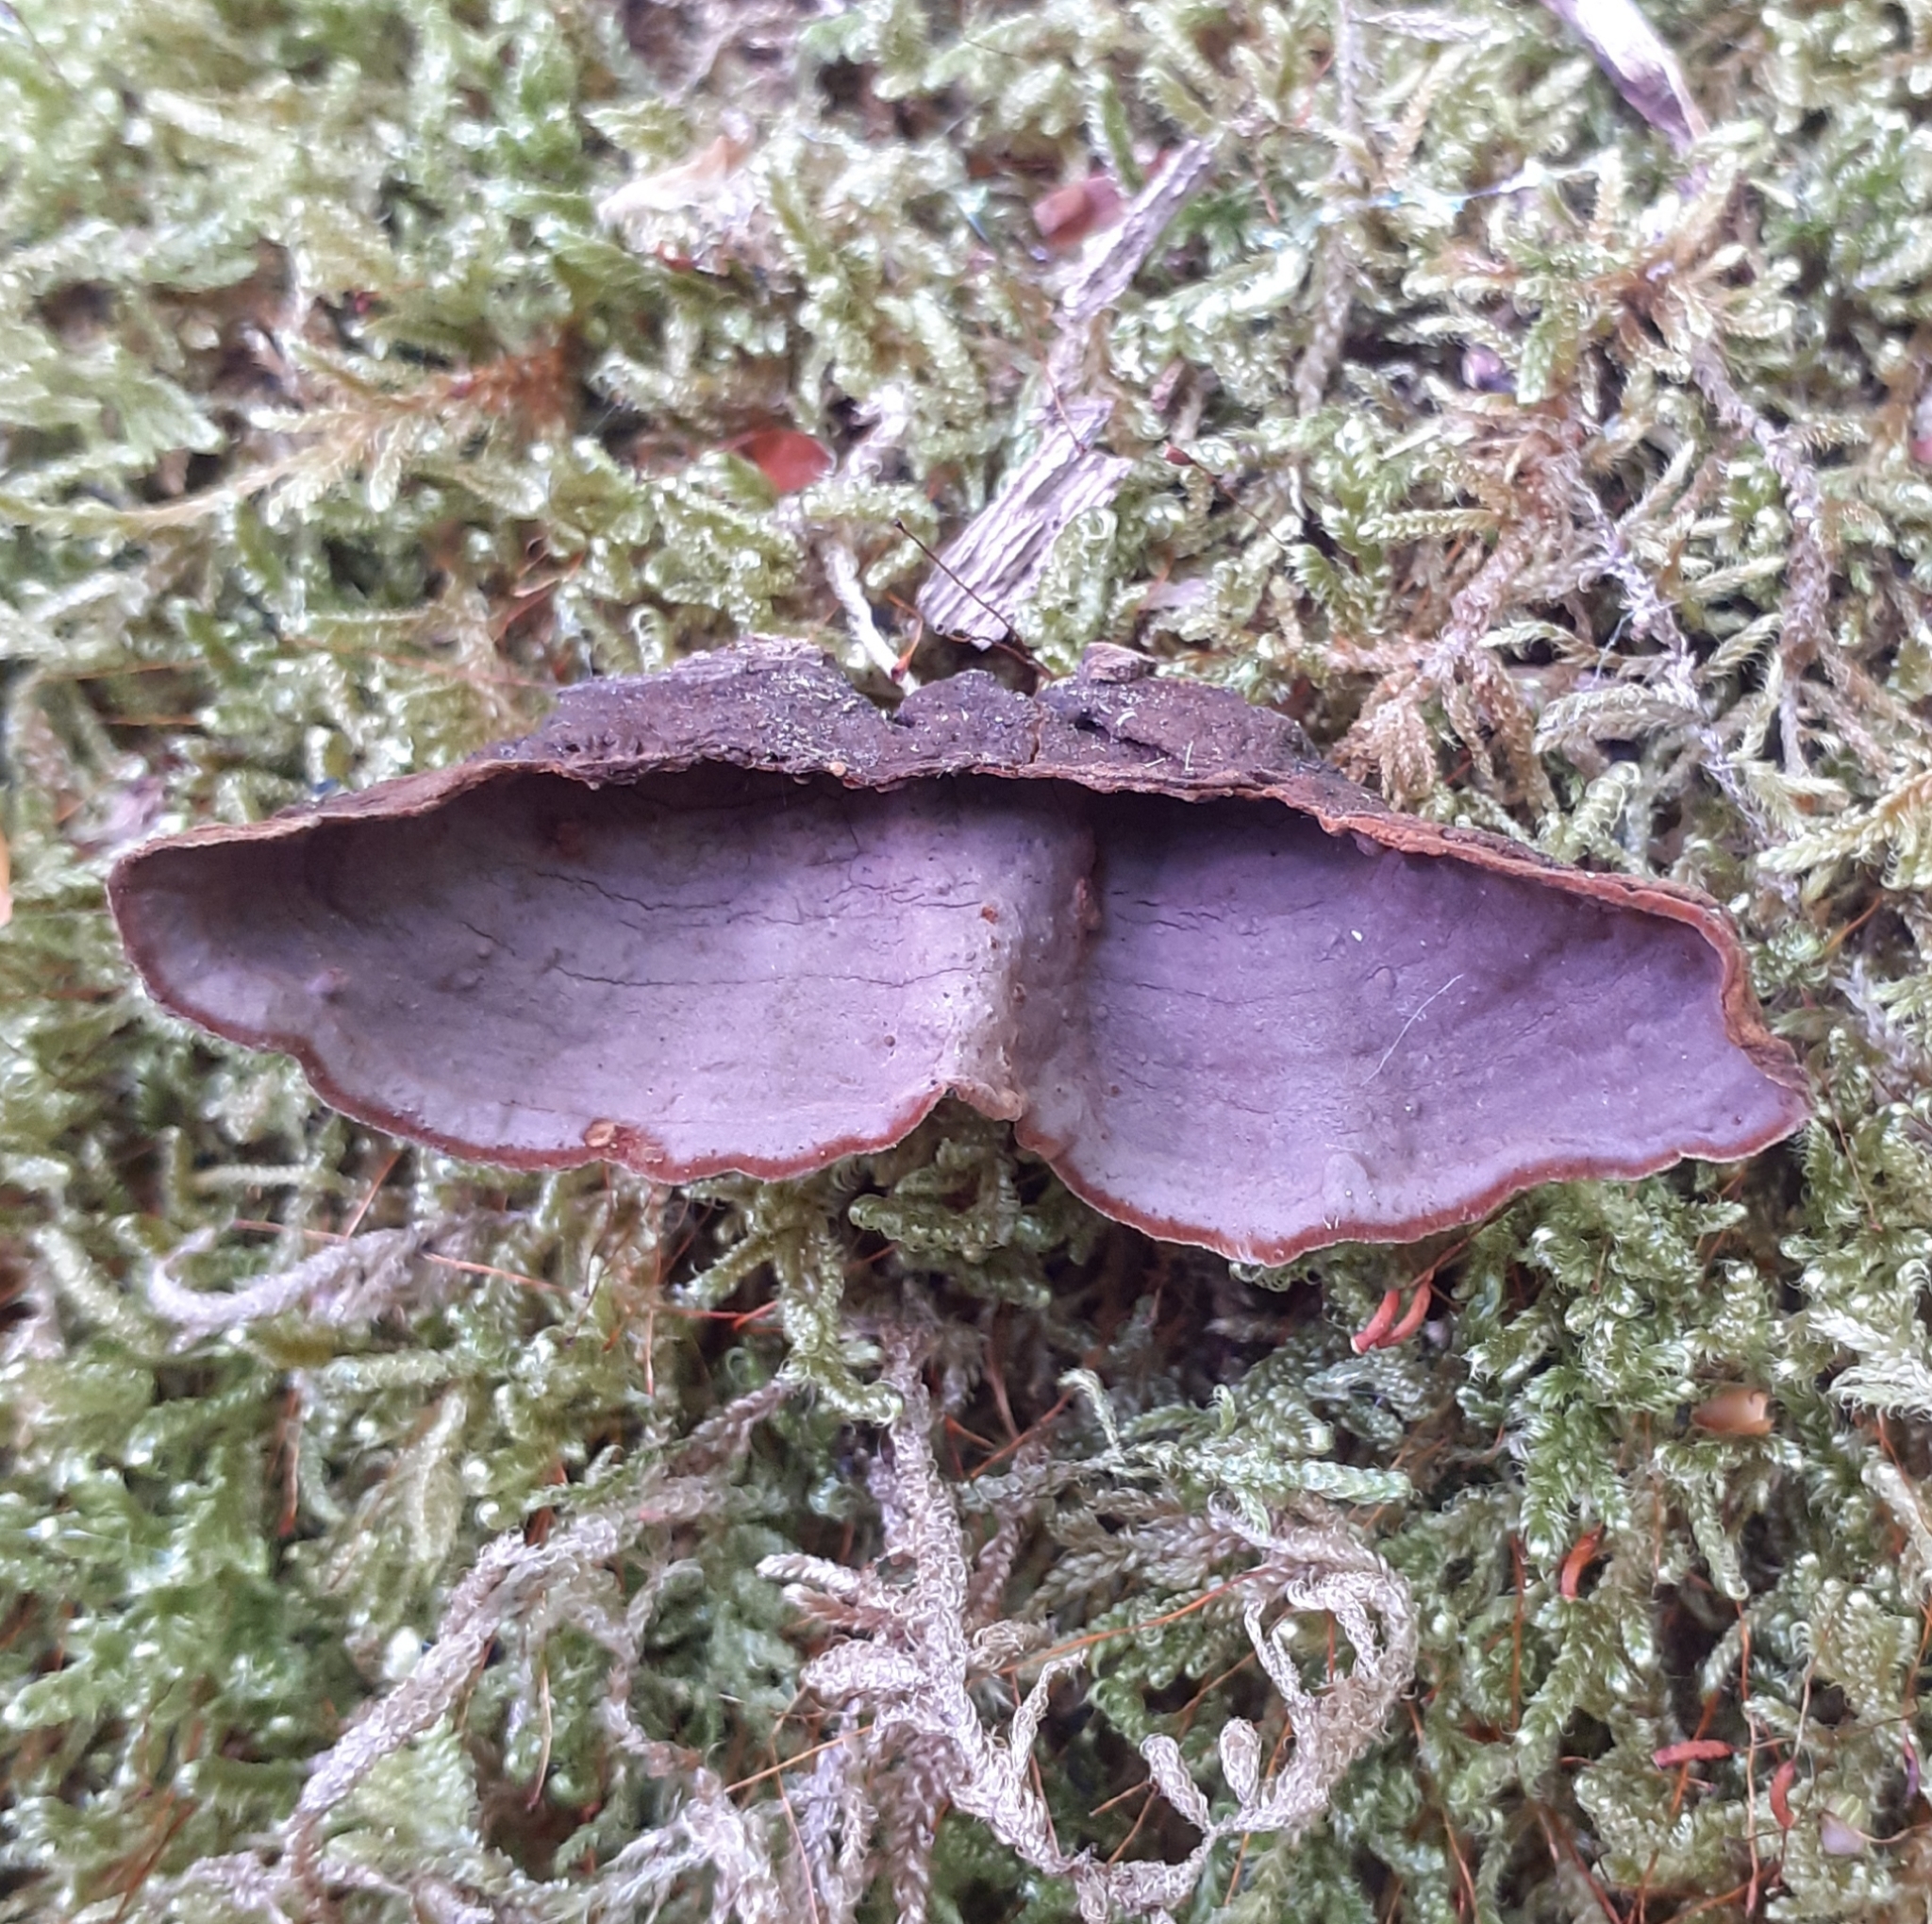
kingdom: Fungi
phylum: Basidiomycota
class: Agaricomycetes
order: Hymenochaetales
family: Hymenochaetaceae
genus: Hymenochaete
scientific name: Hymenochaete rubiginosa
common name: Oak curtain crust
